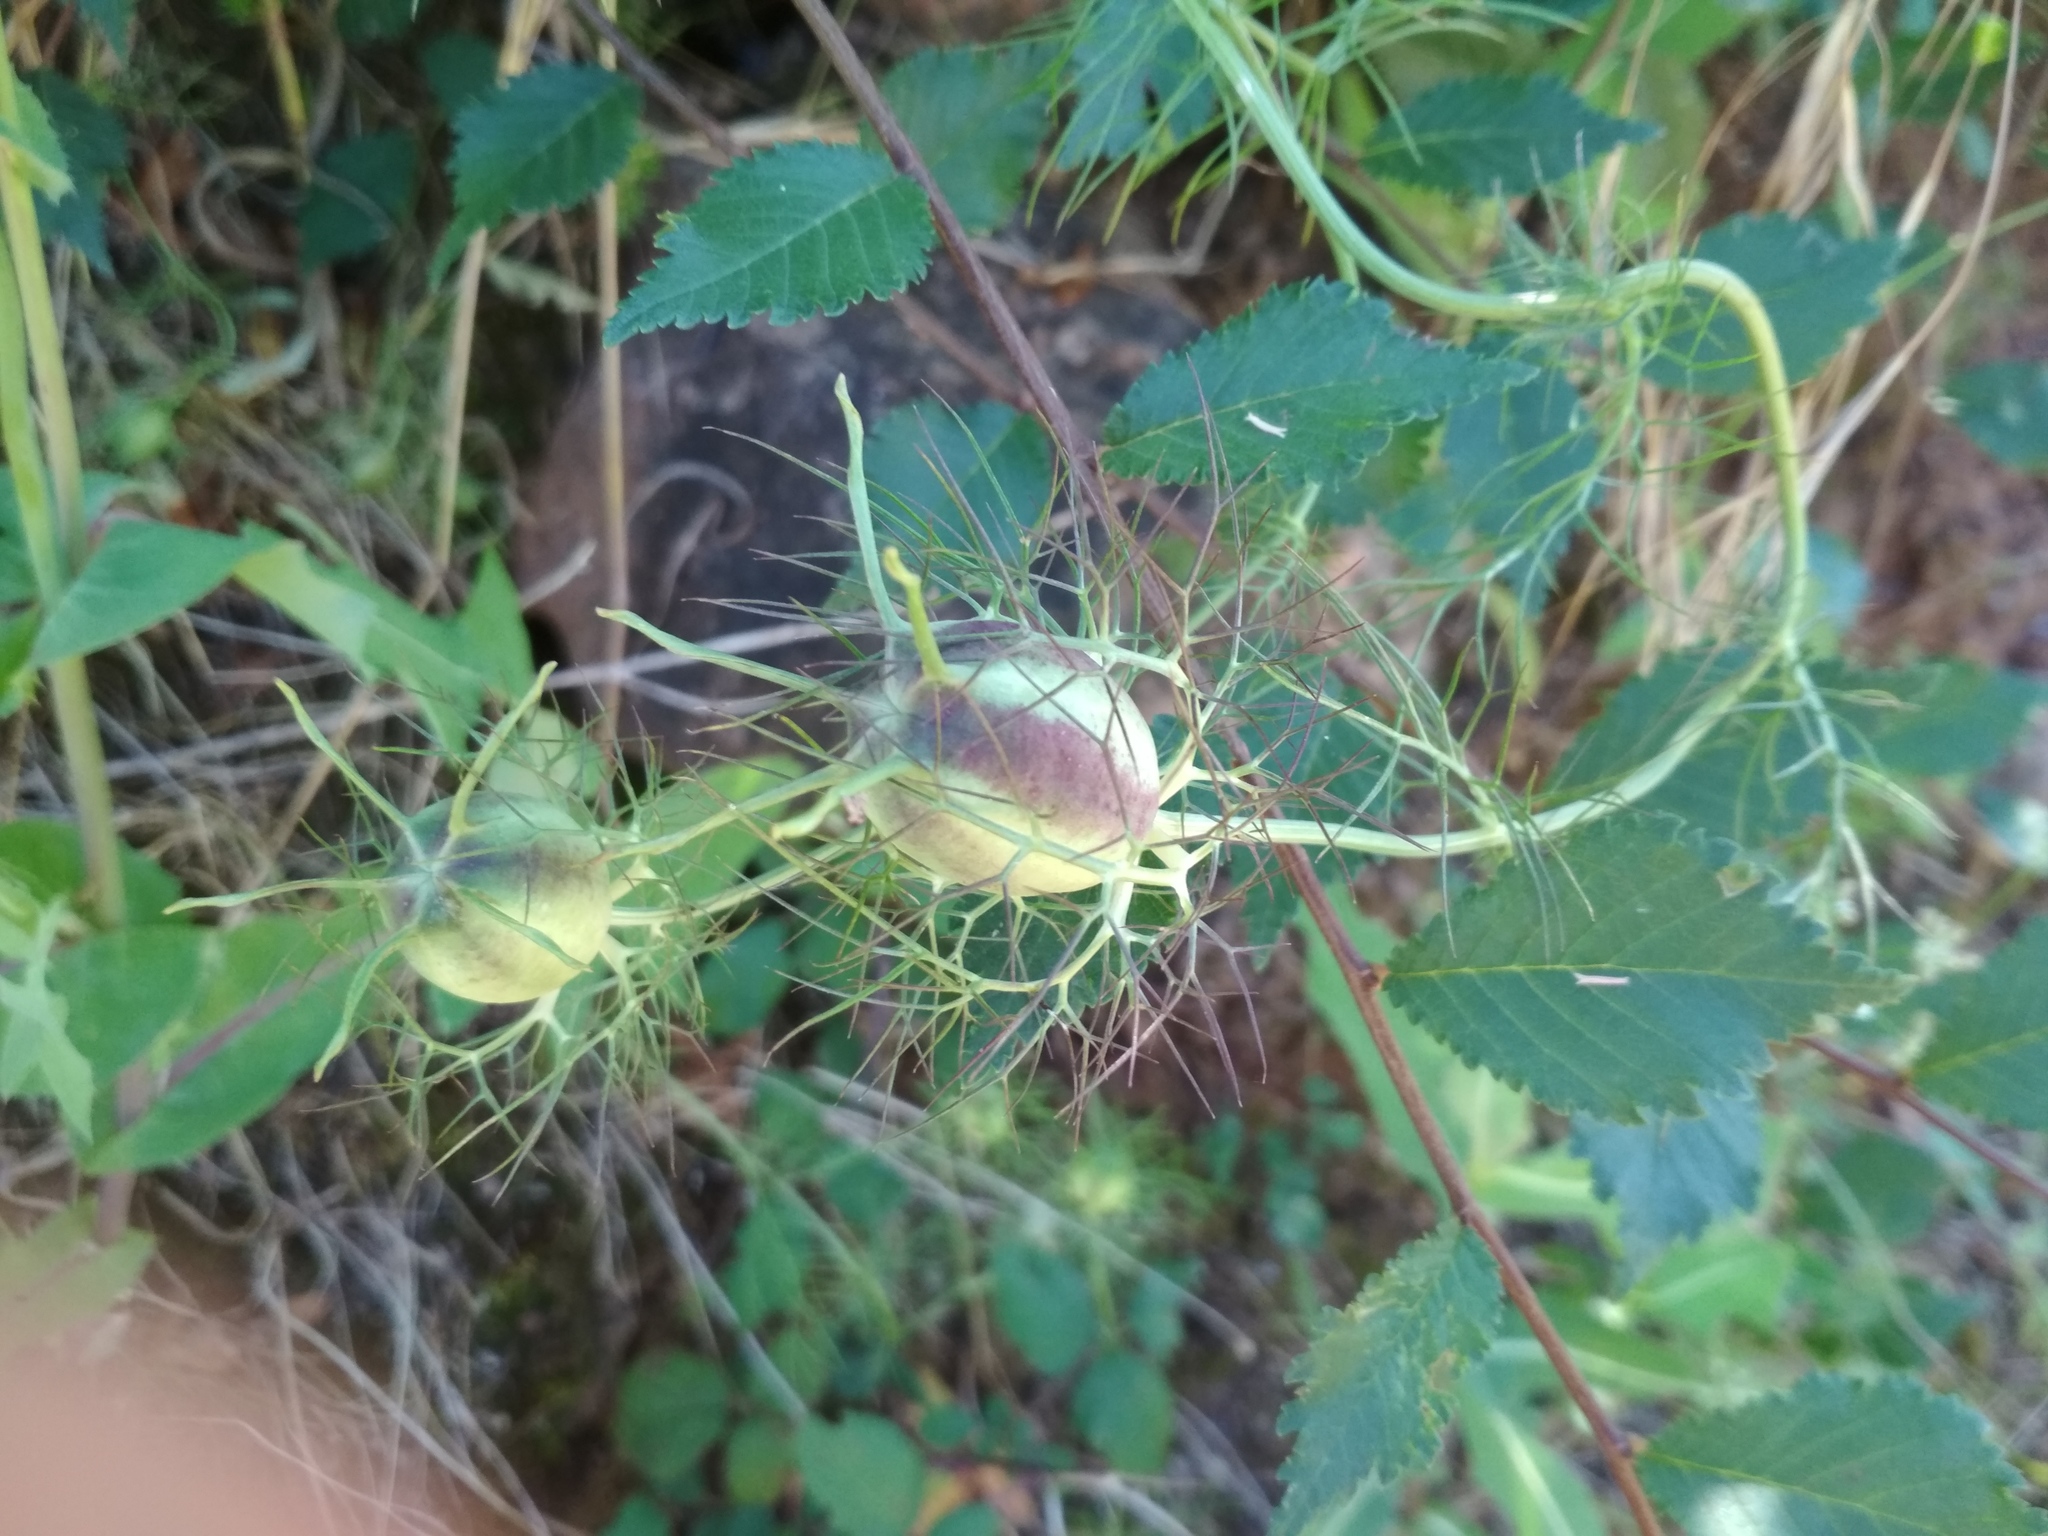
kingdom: Plantae
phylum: Tracheophyta
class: Magnoliopsida
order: Ranunculales
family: Ranunculaceae
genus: Nigella
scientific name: Nigella damascena
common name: Love-in-a-mist
